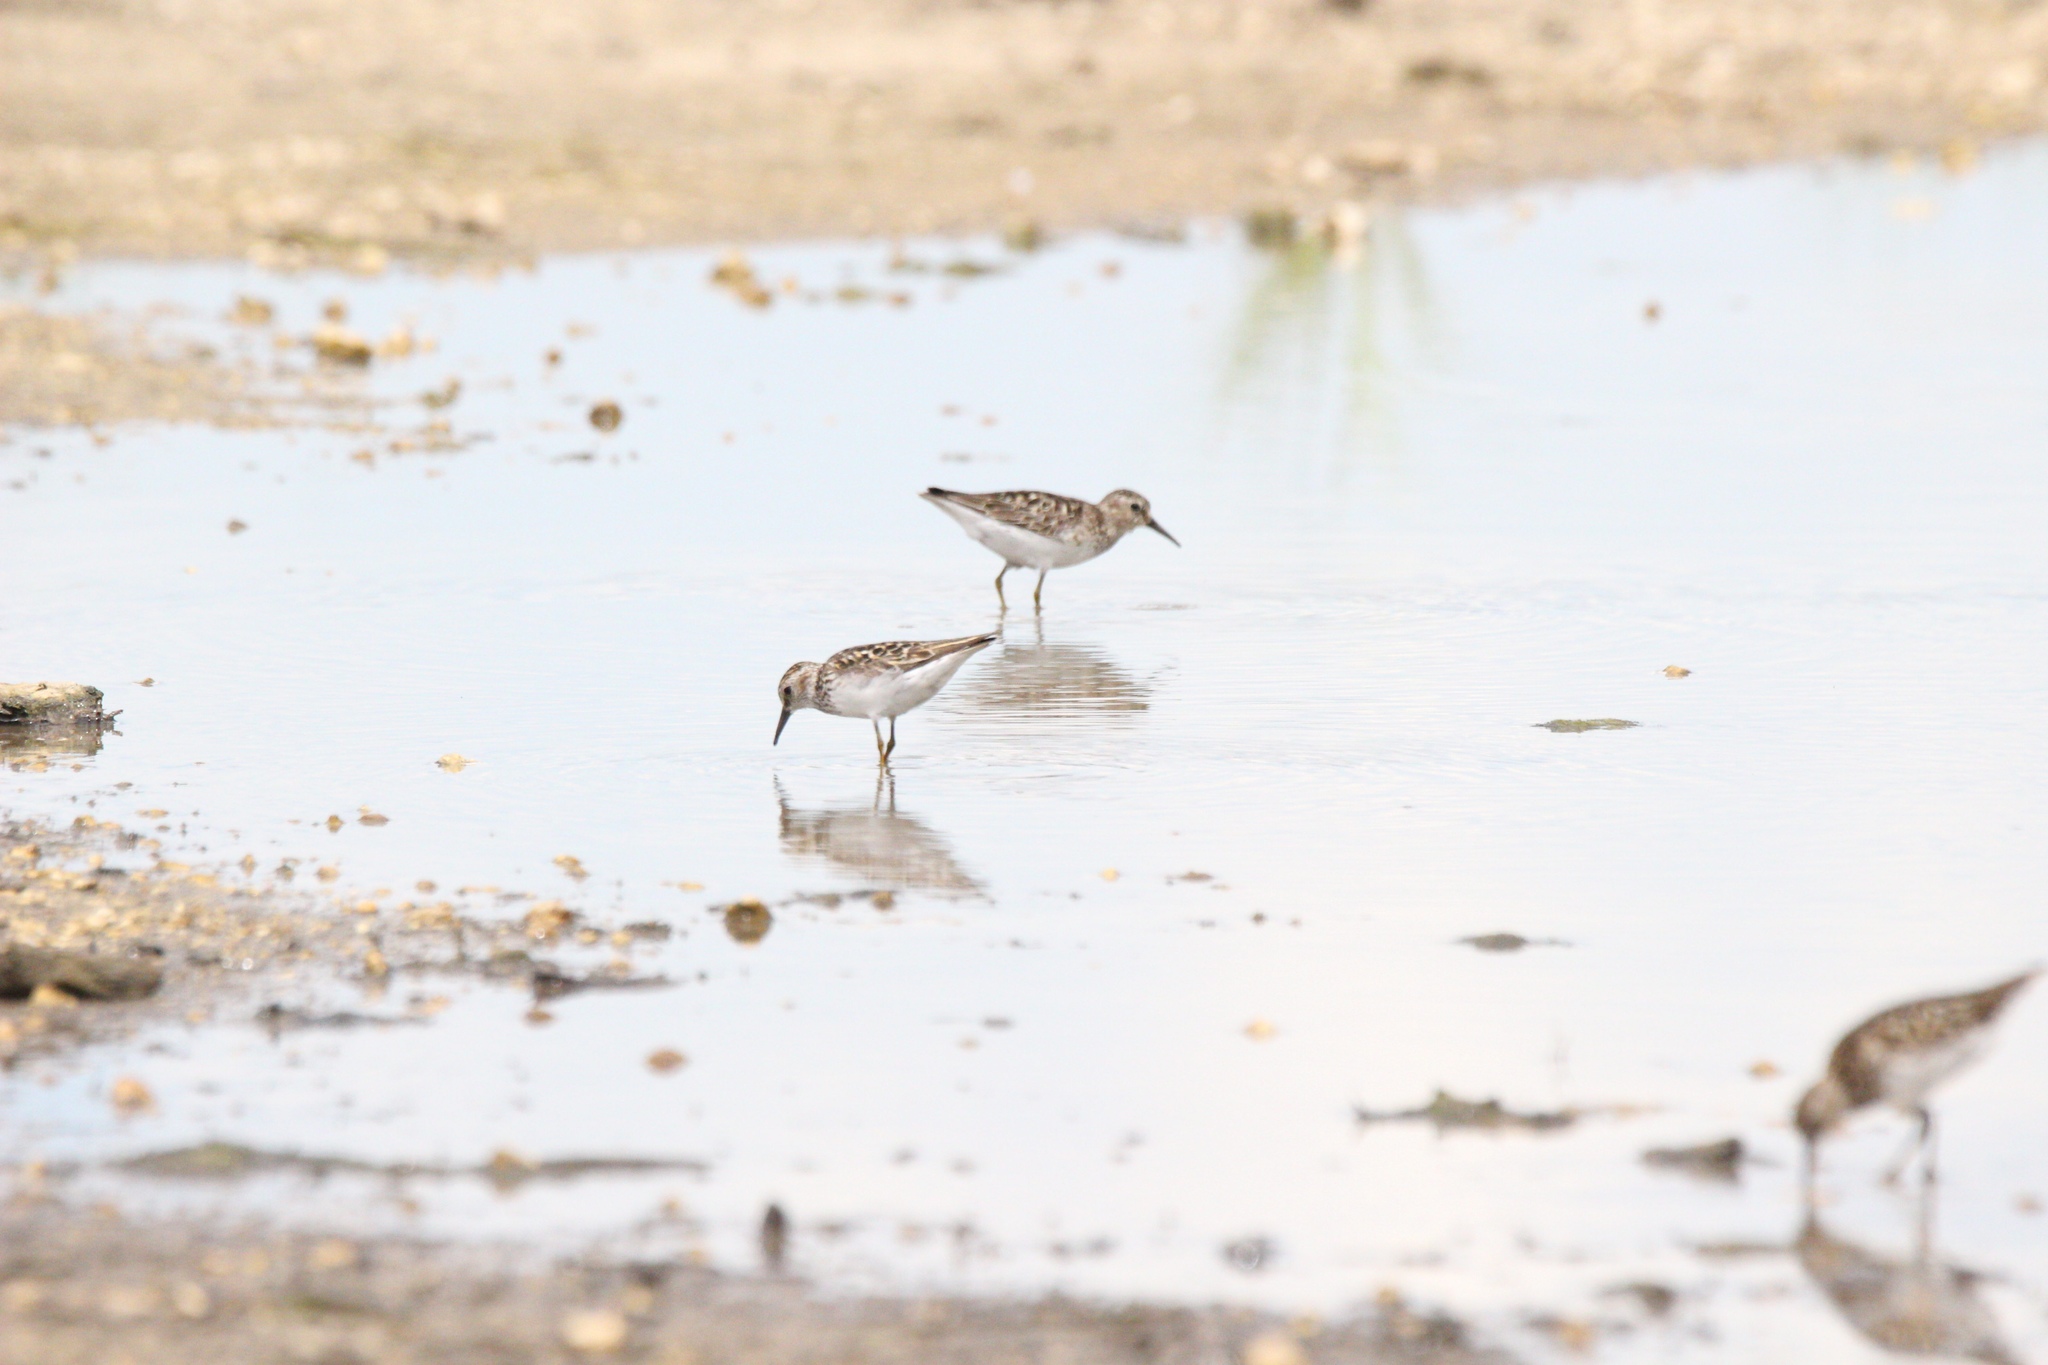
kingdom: Animalia
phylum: Chordata
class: Aves
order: Charadriiformes
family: Scolopacidae
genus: Calidris
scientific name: Calidris minutilla
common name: Least sandpiper
